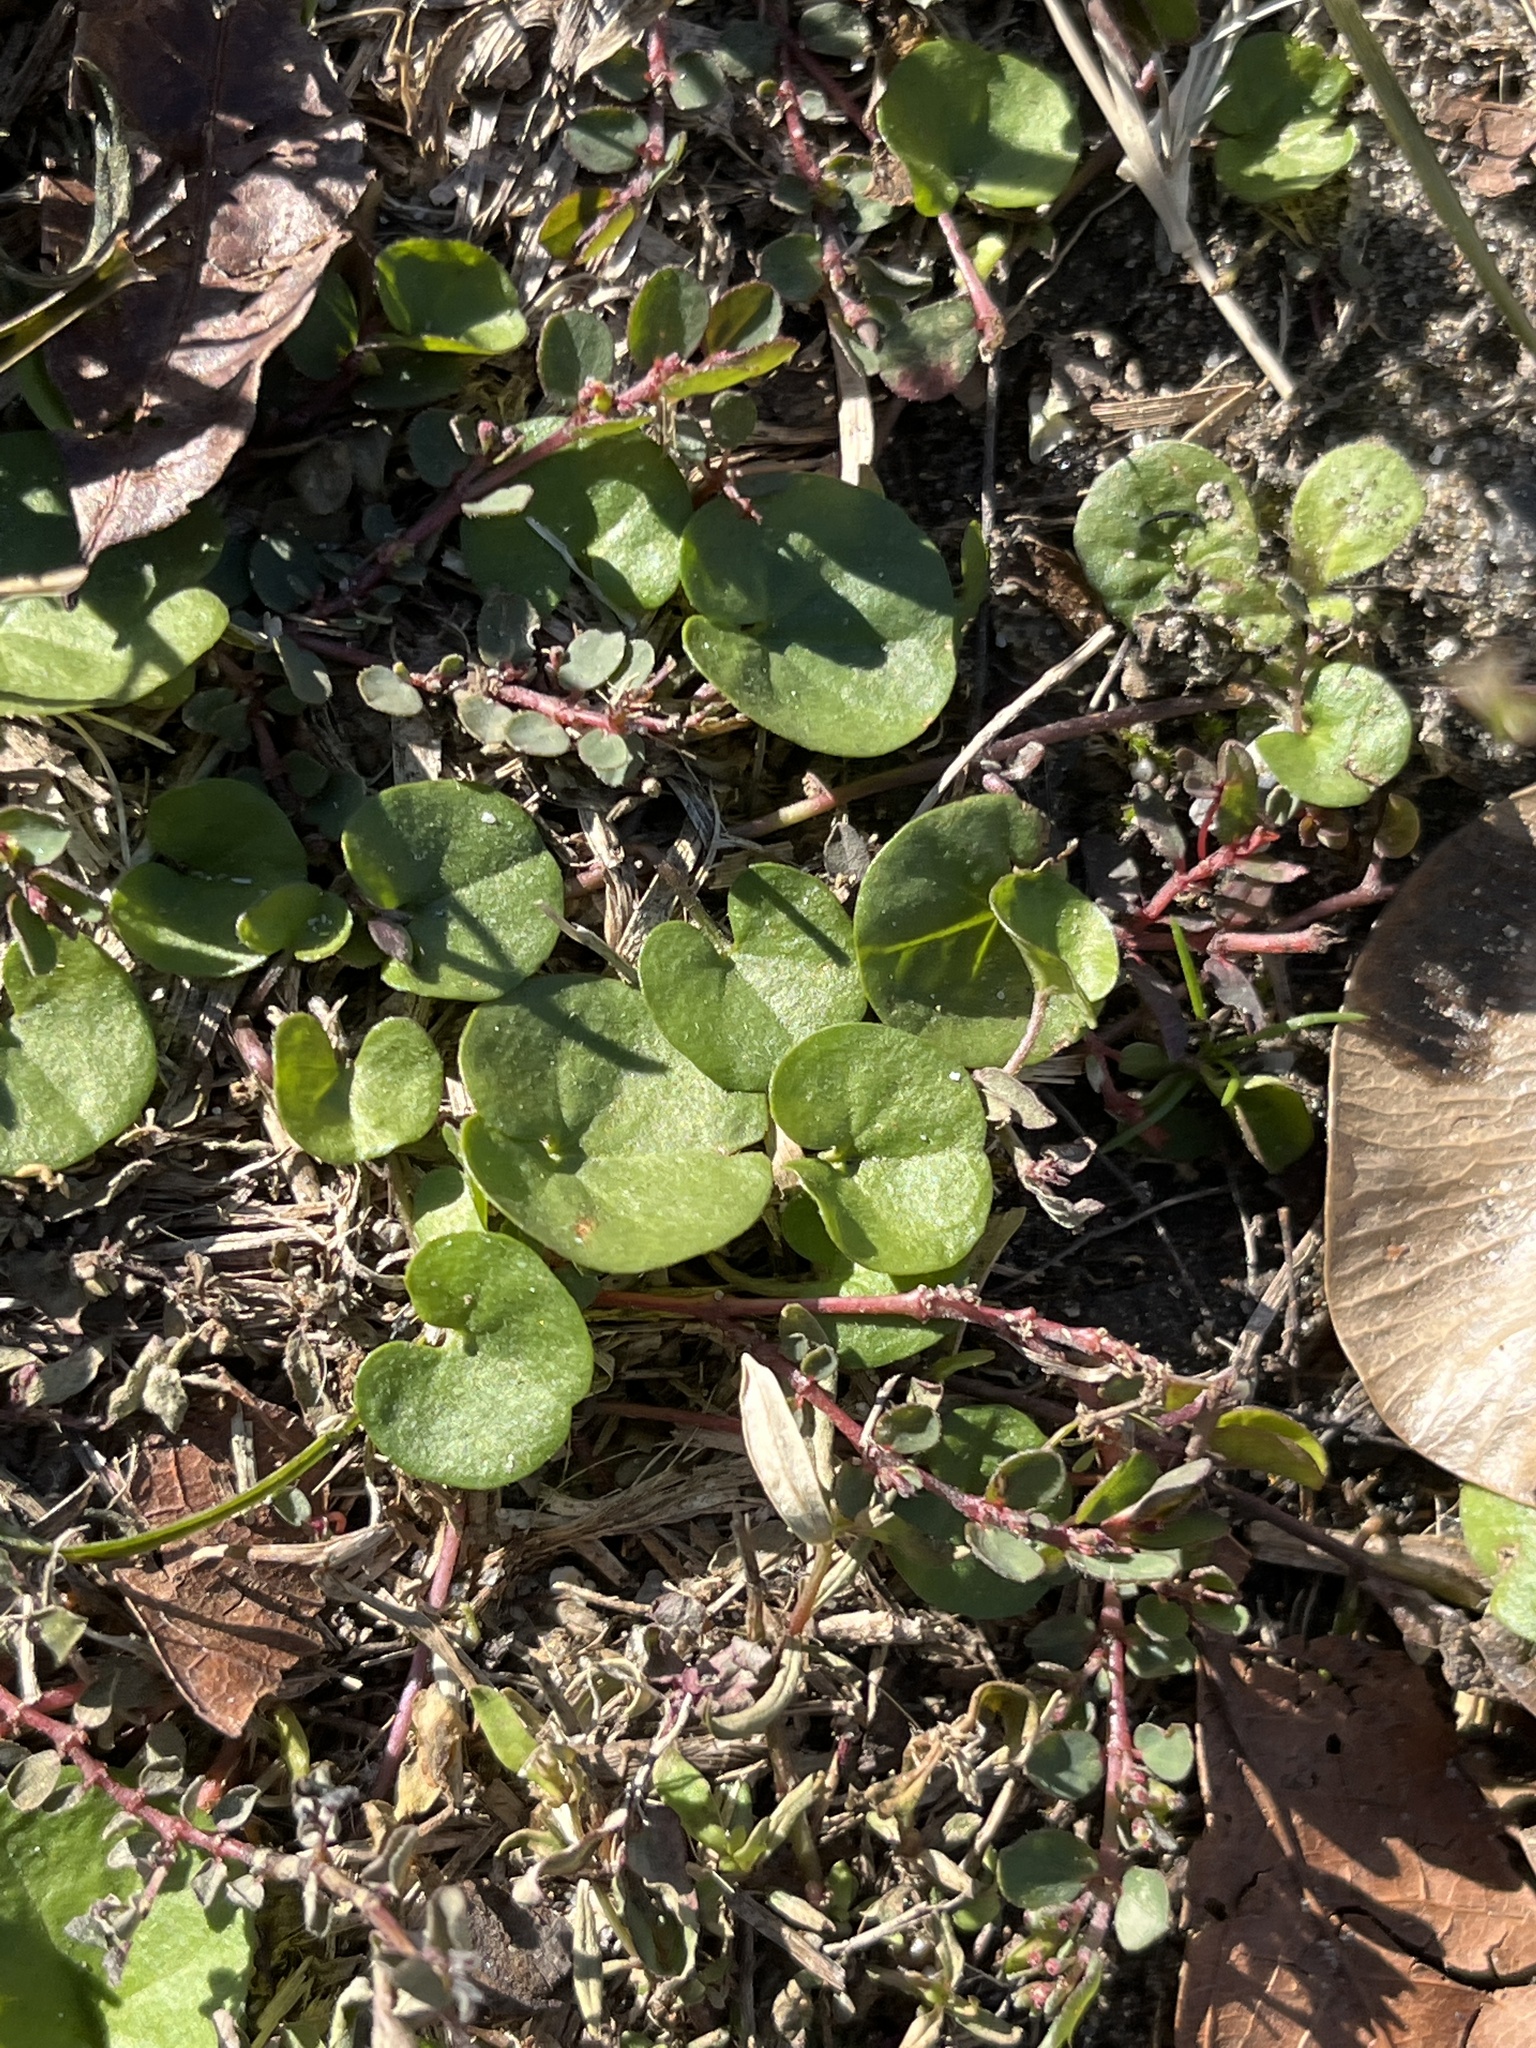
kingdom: Plantae
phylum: Tracheophyta
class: Magnoliopsida
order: Solanales
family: Convolvulaceae
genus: Dichondra
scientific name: Dichondra carolinensis
